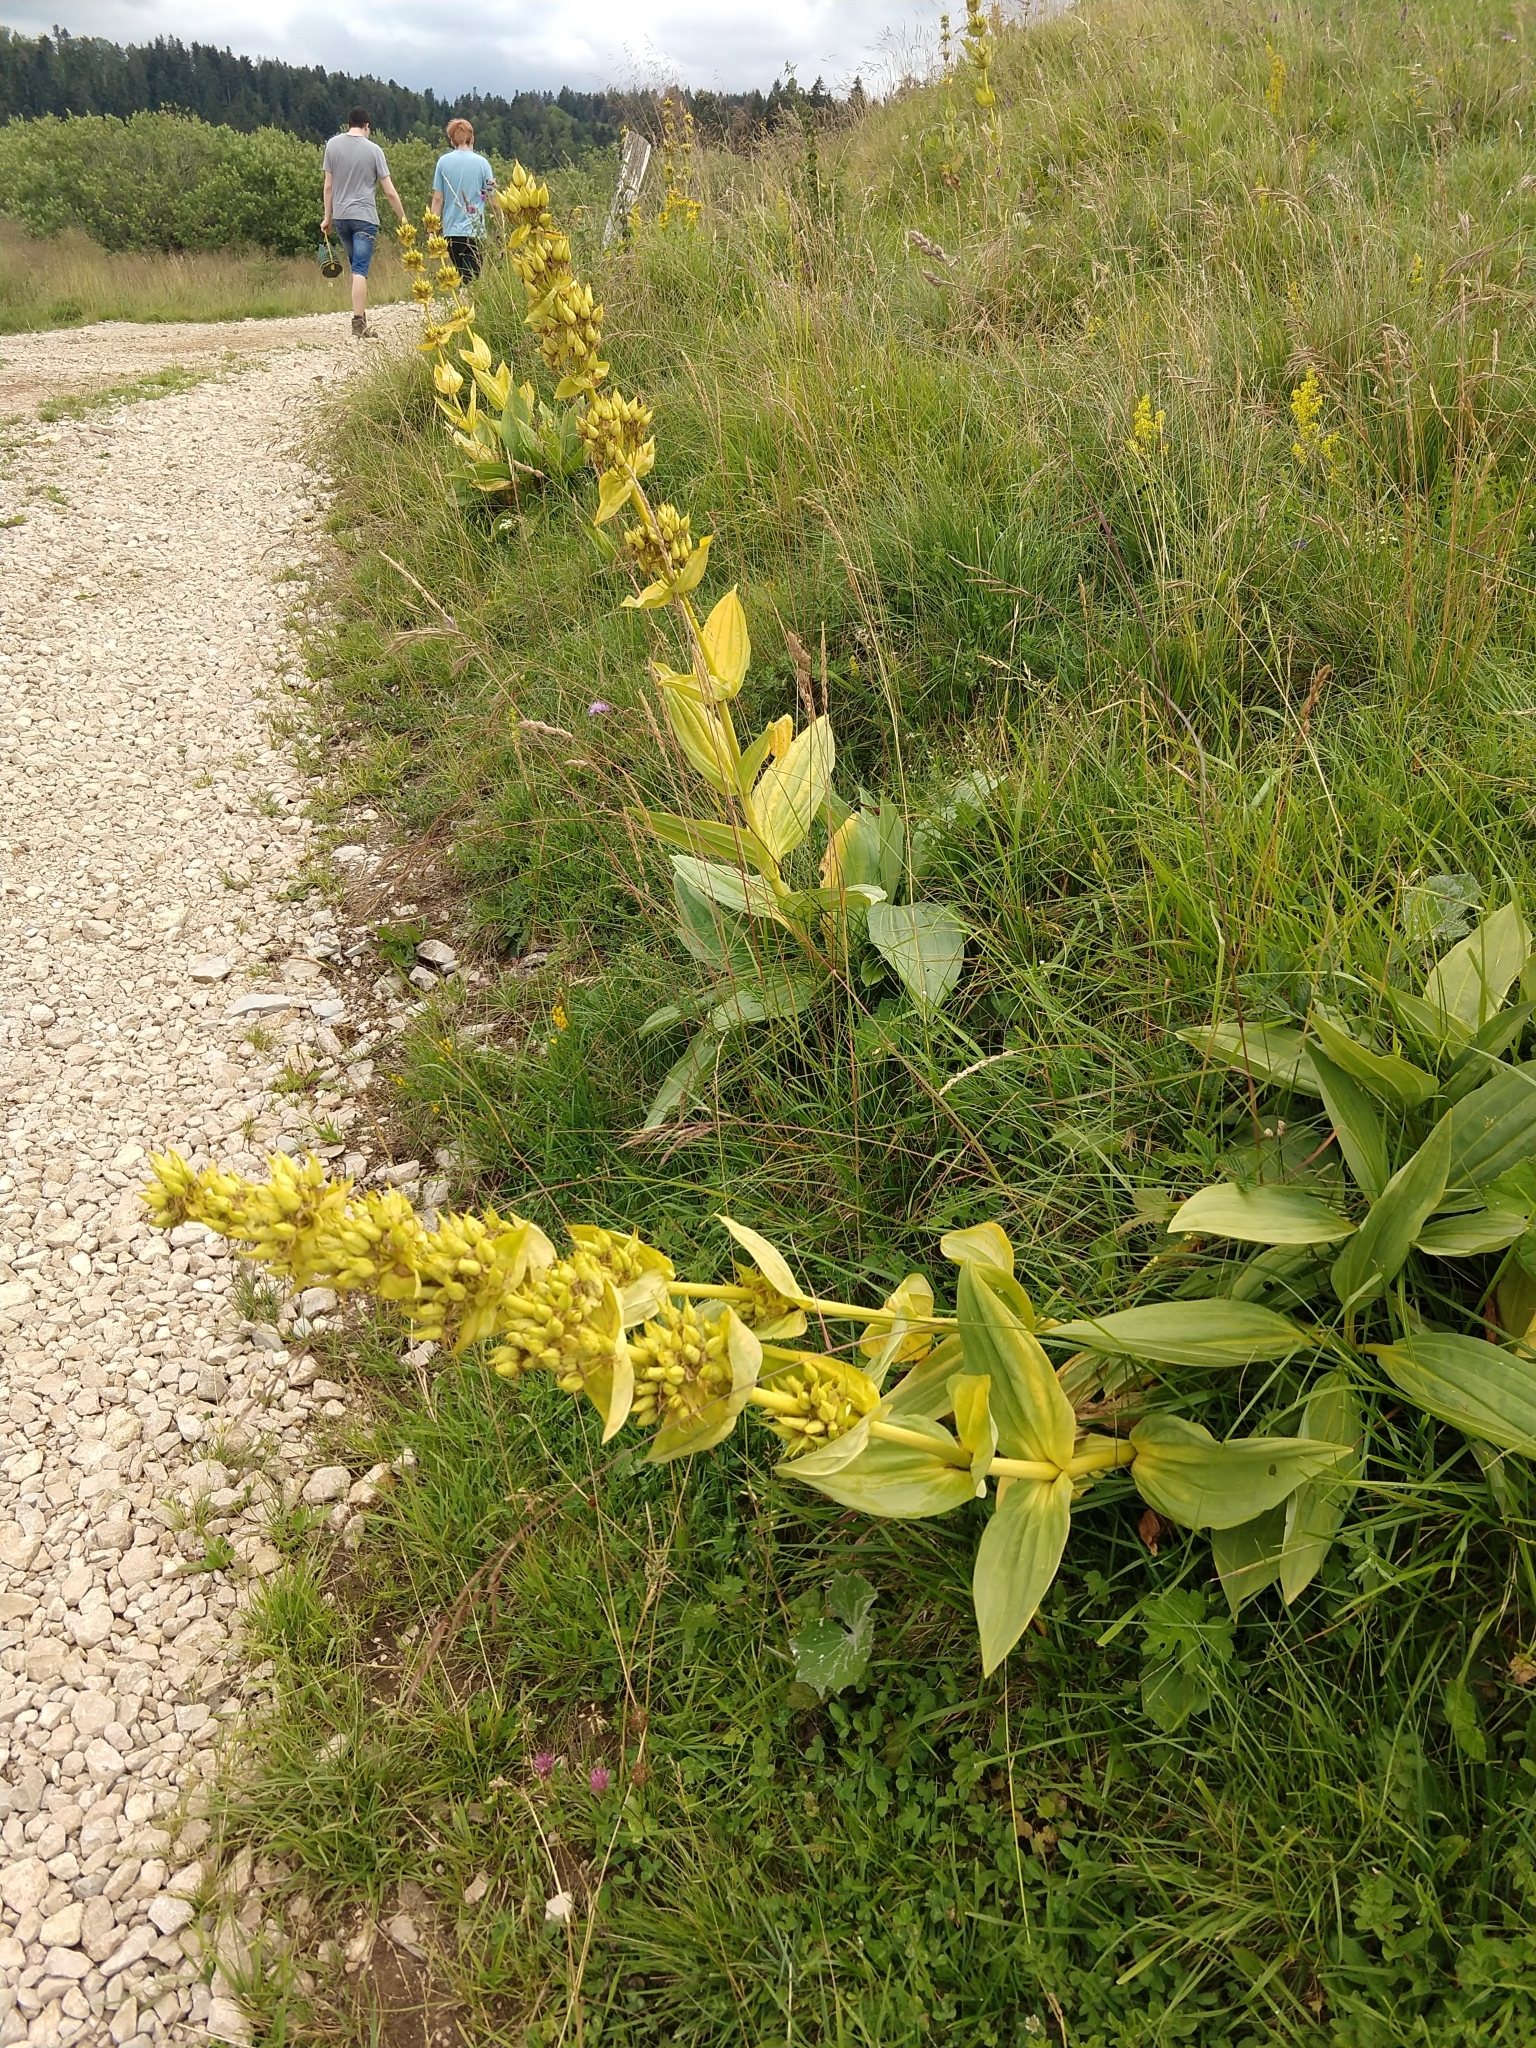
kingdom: Plantae
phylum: Tracheophyta
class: Magnoliopsida
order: Gentianales
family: Gentianaceae
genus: Gentiana
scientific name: Gentiana lutea
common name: Great yellow gentian
